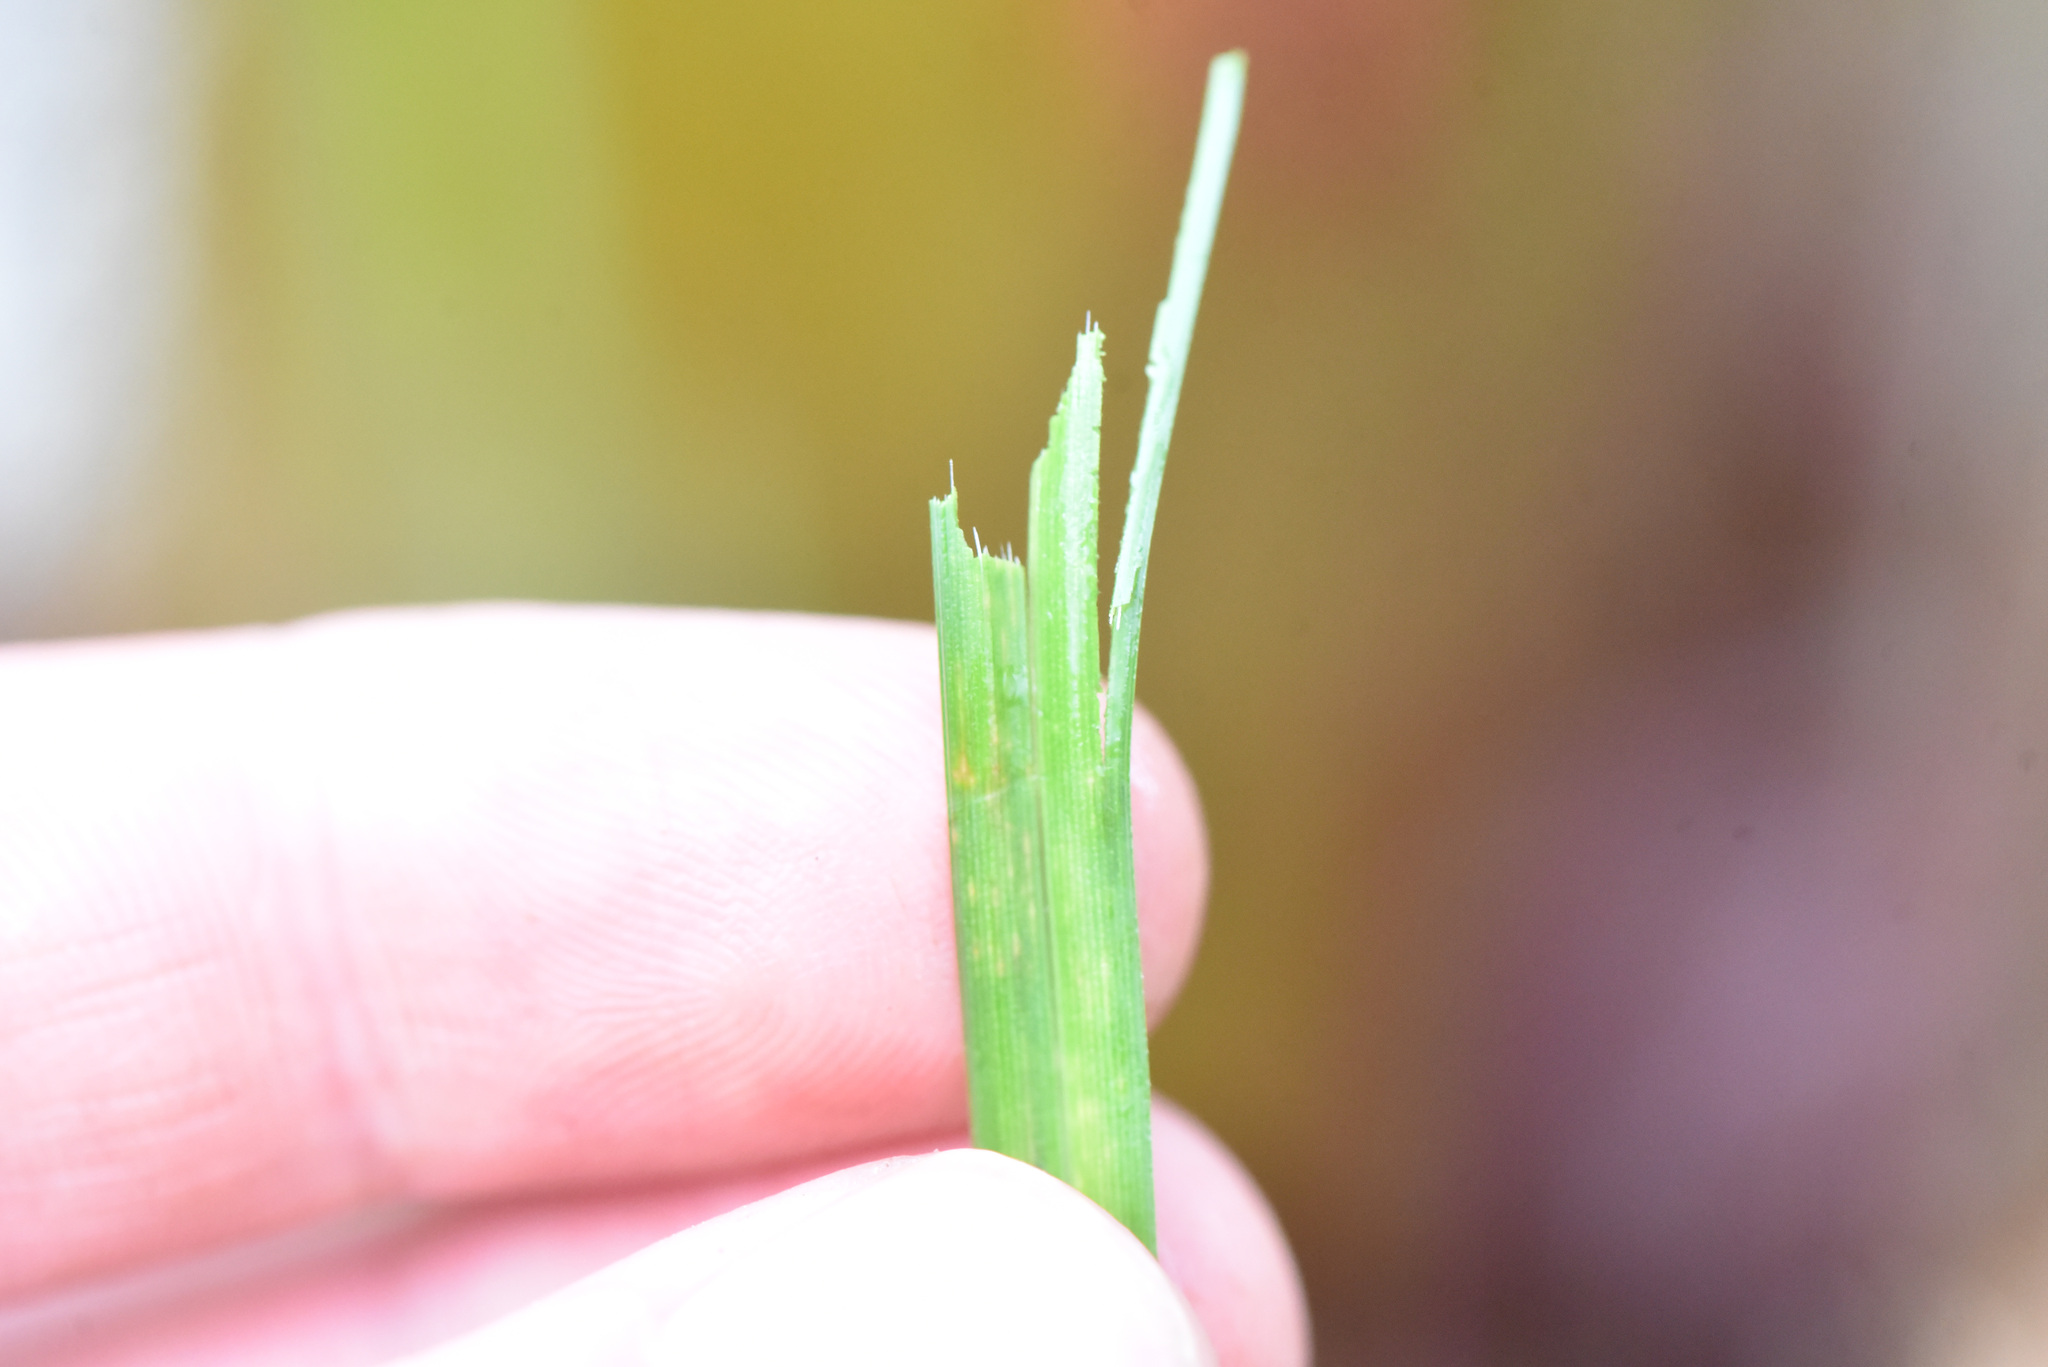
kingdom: Plantae
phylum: Tracheophyta
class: Liliopsida
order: Poales
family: Cyperaceae
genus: Carex
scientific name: Carex obnupta
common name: Slough sedge
